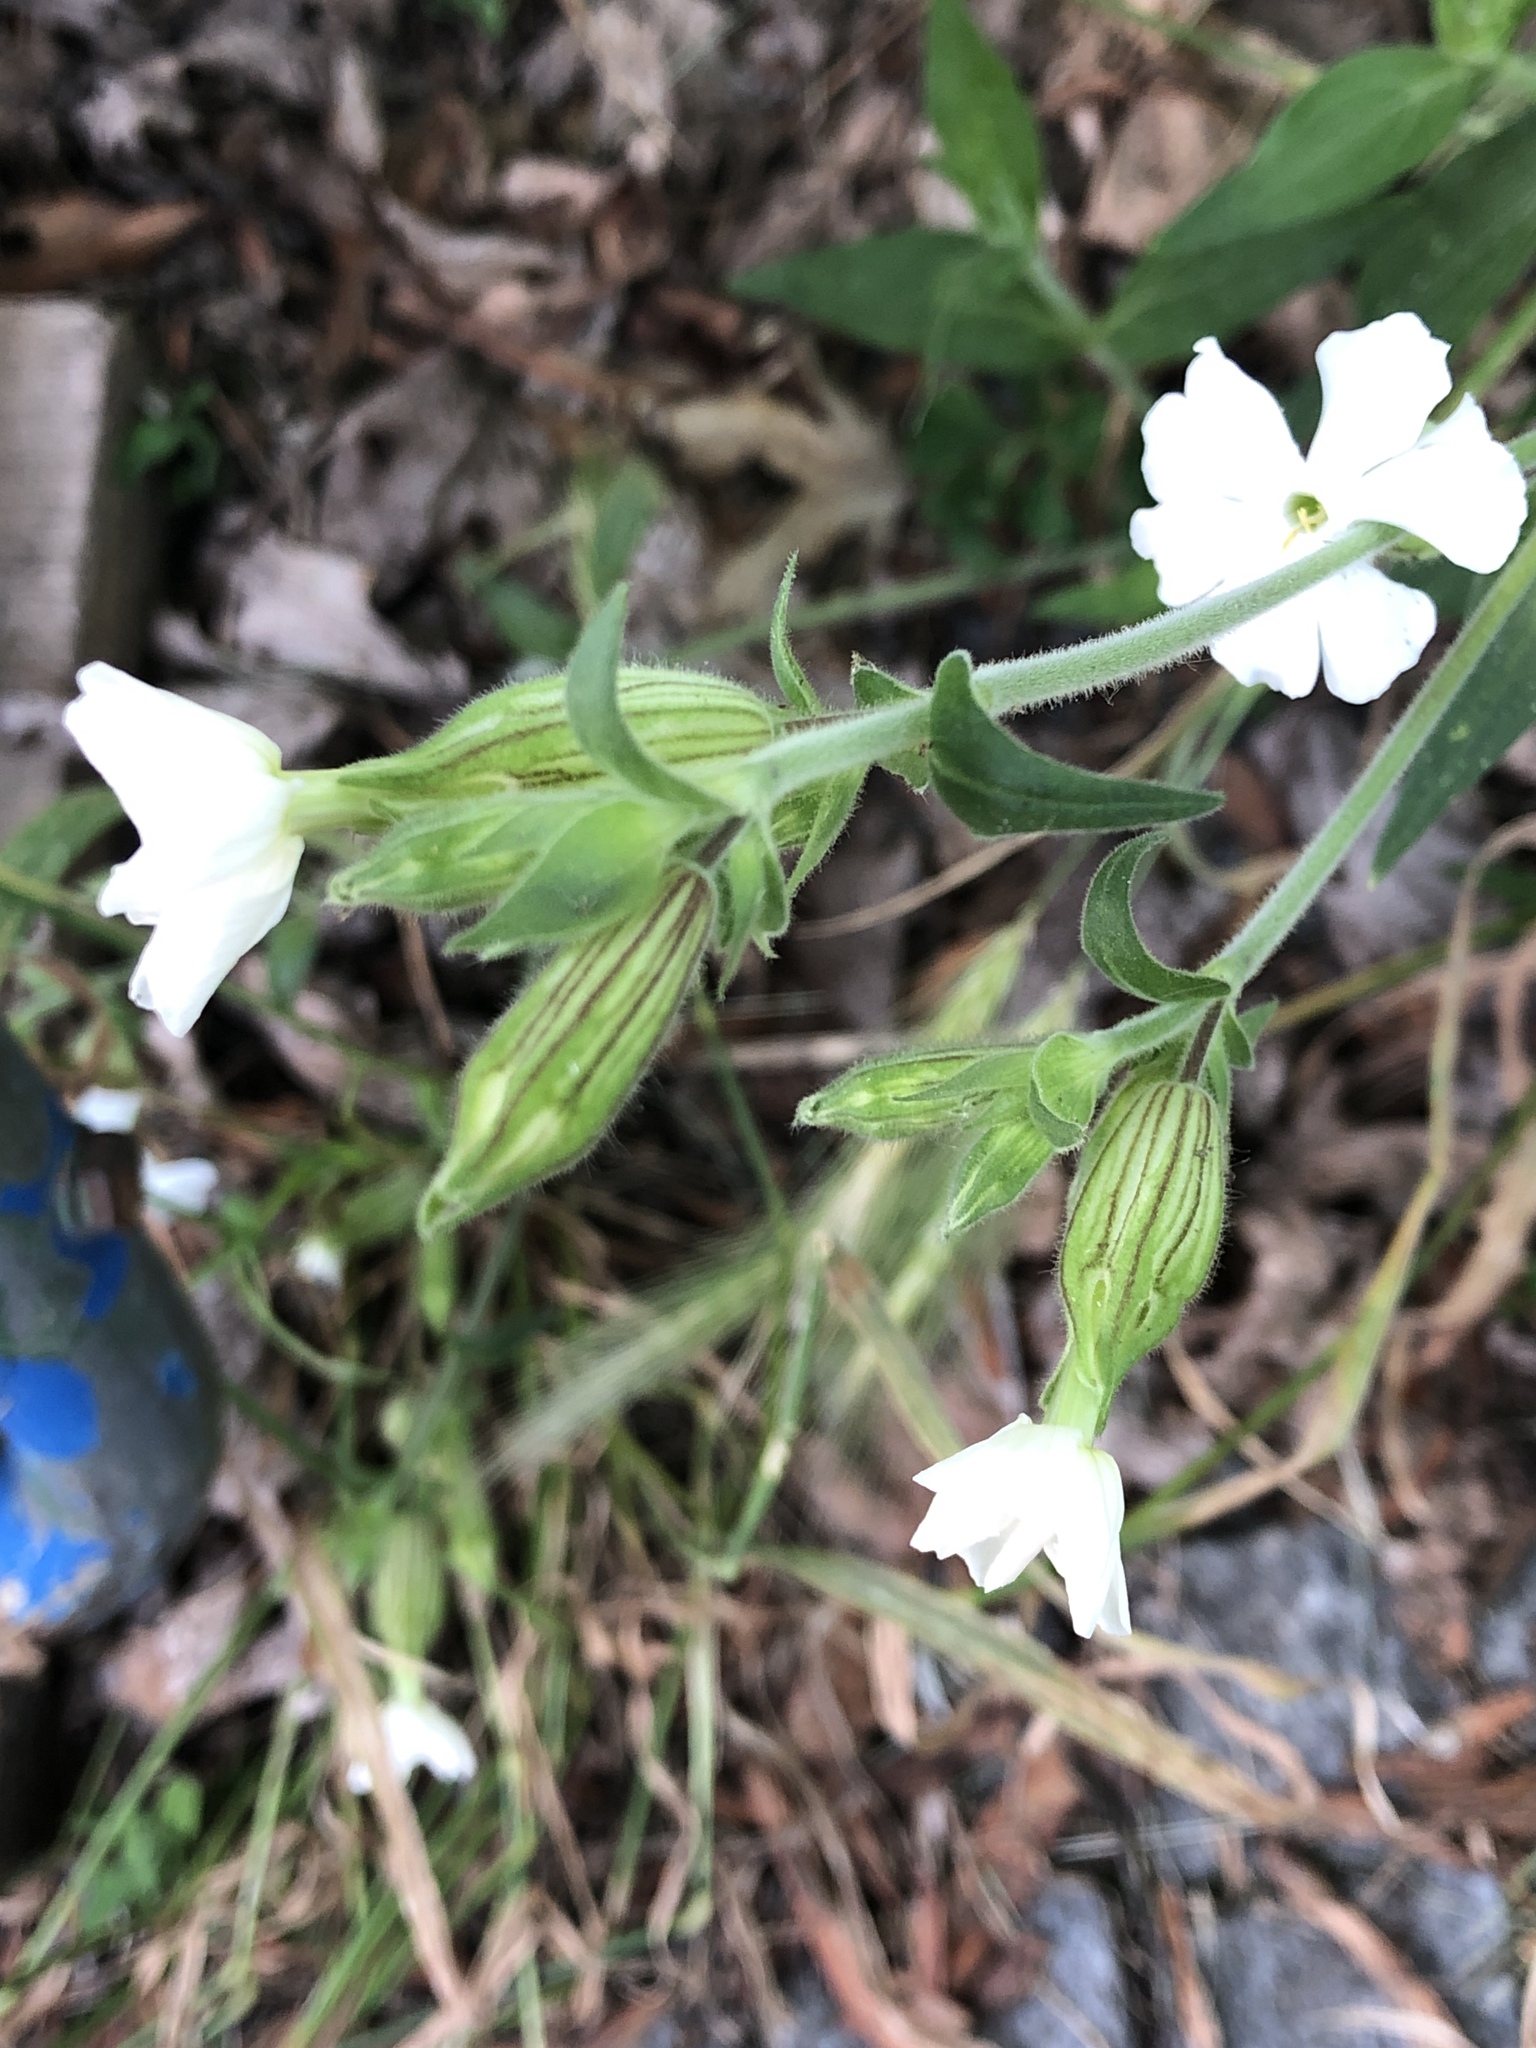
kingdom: Plantae
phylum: Tracheophyta
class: Magnoliopsida
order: Caryophyllales
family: Caryophyllaceae
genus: Silene
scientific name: Silene latifolia
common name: White campion
